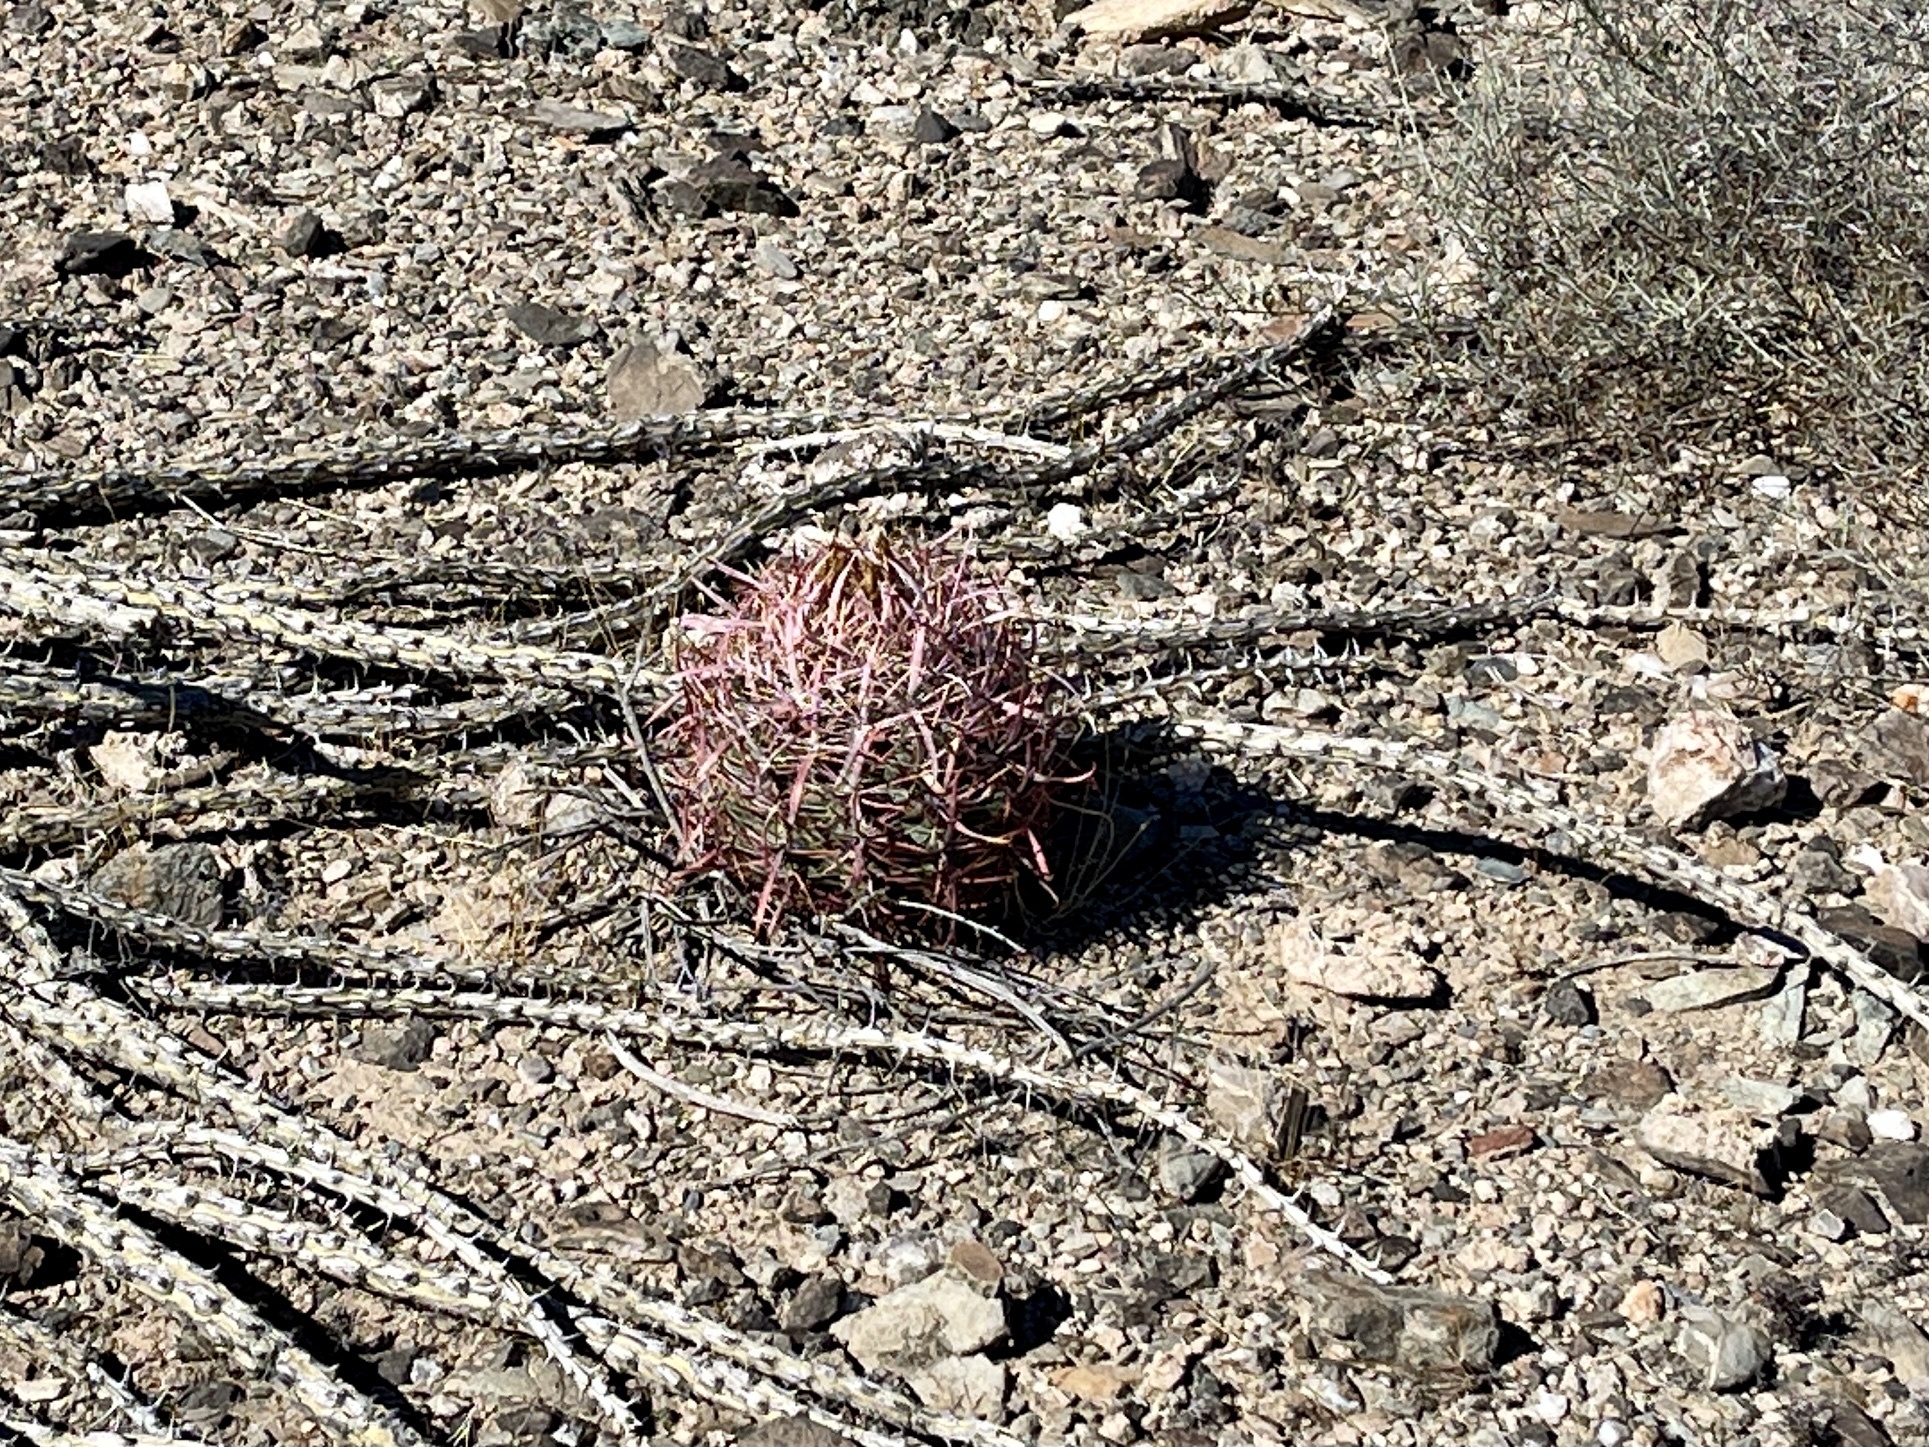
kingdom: Plantae
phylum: Tracheophyta
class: Magnoliopsida
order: Caryophyllales
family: Cactaceae
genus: Ferocactus
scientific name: Ferocactus cylindraceus
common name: California barrel cactus
